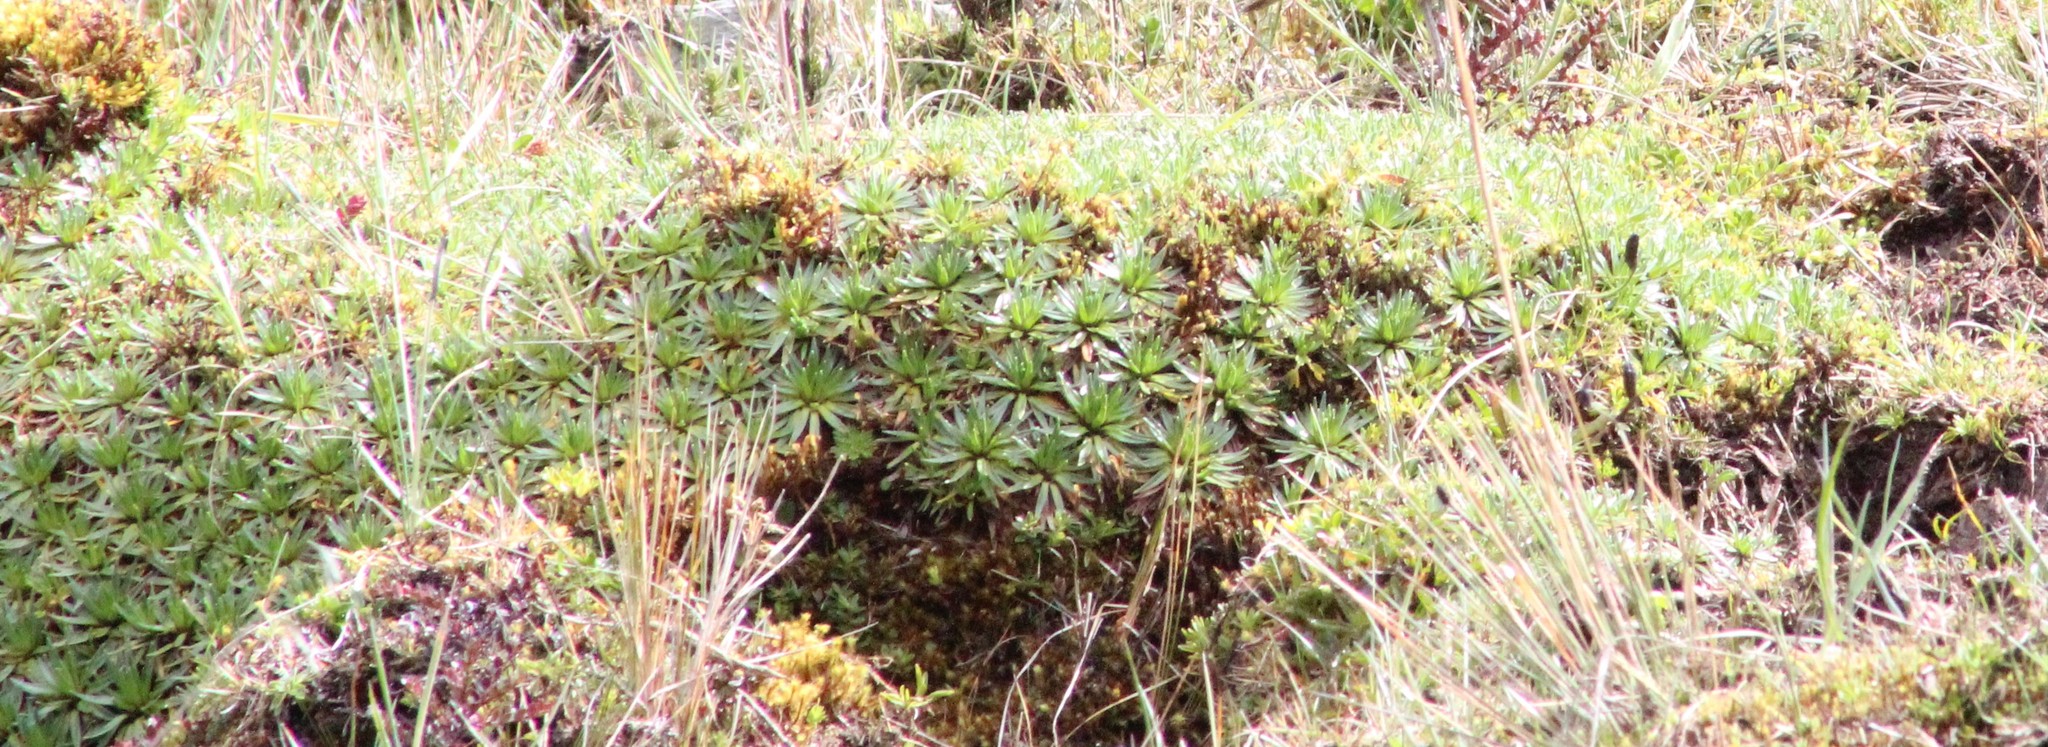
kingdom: Plantae
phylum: Tracheophyta
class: Magnoliopsida
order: Lamiales
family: Plantaginaceae
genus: Plantago
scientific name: Plantago rigida
